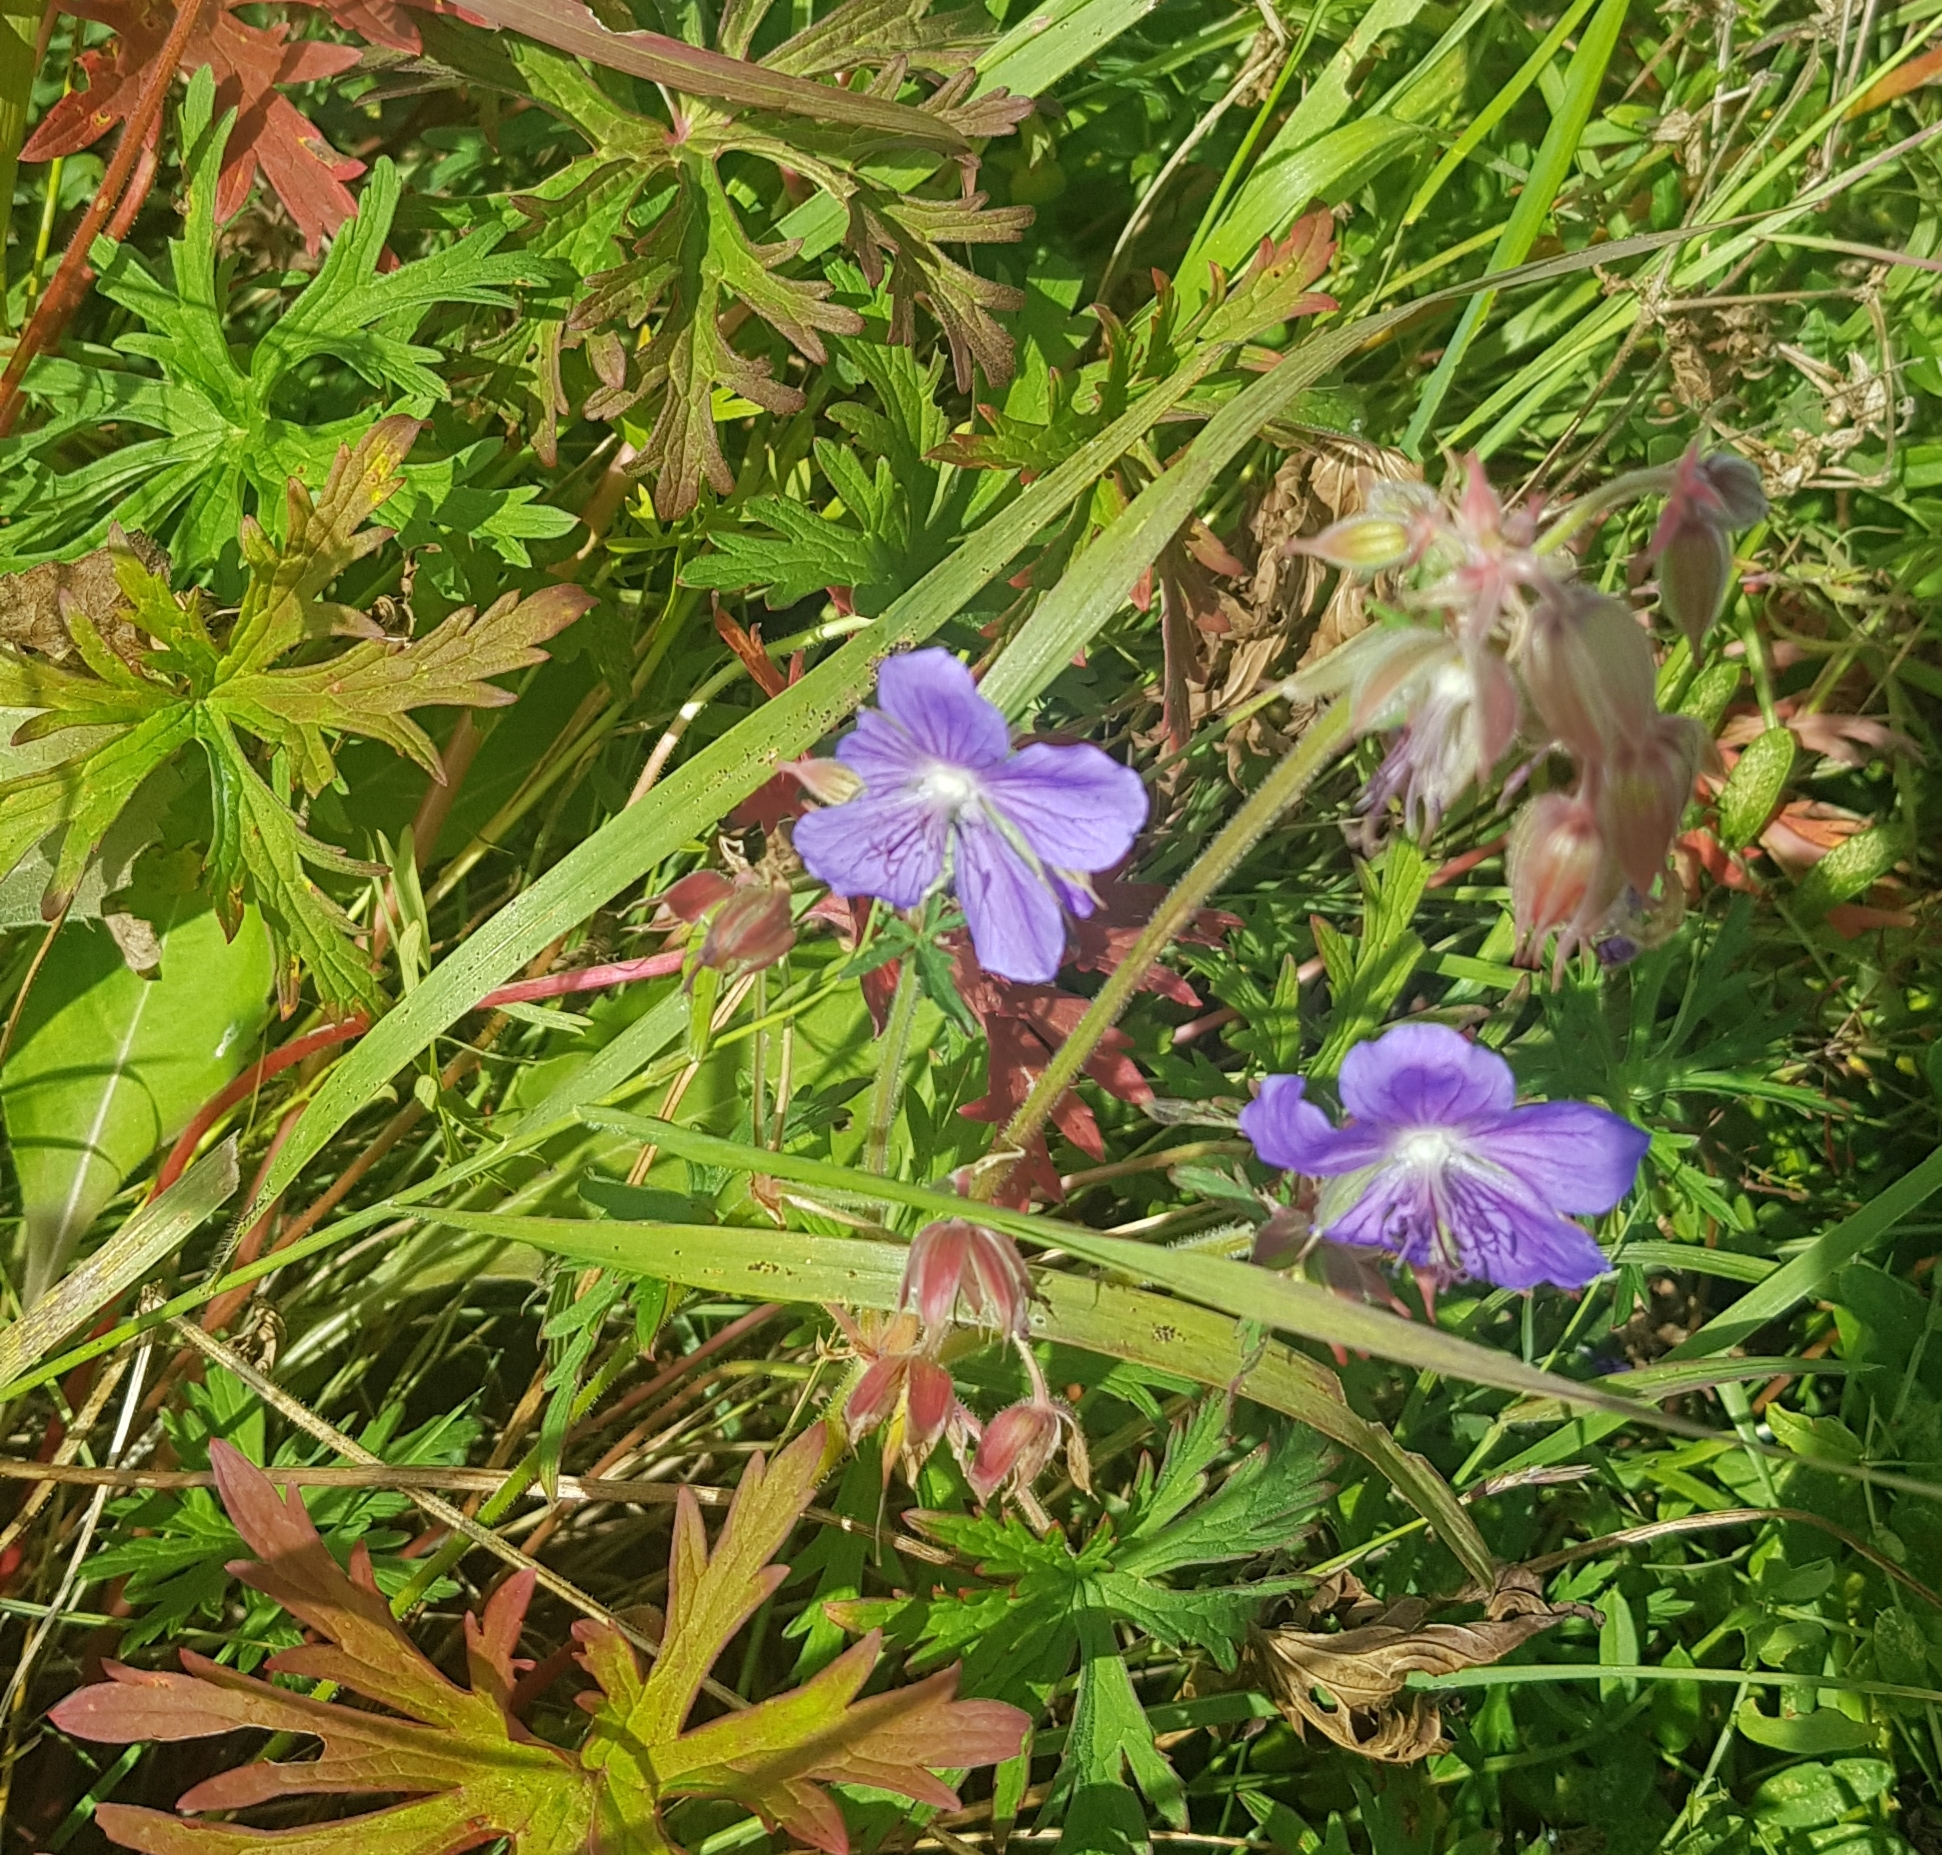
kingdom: Plantae
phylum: Tracheophyta
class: Magnoliopsida
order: Geraniales
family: Geraniaceae
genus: Geranium
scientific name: Geranium pratense
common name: Meadow crane's-bill
